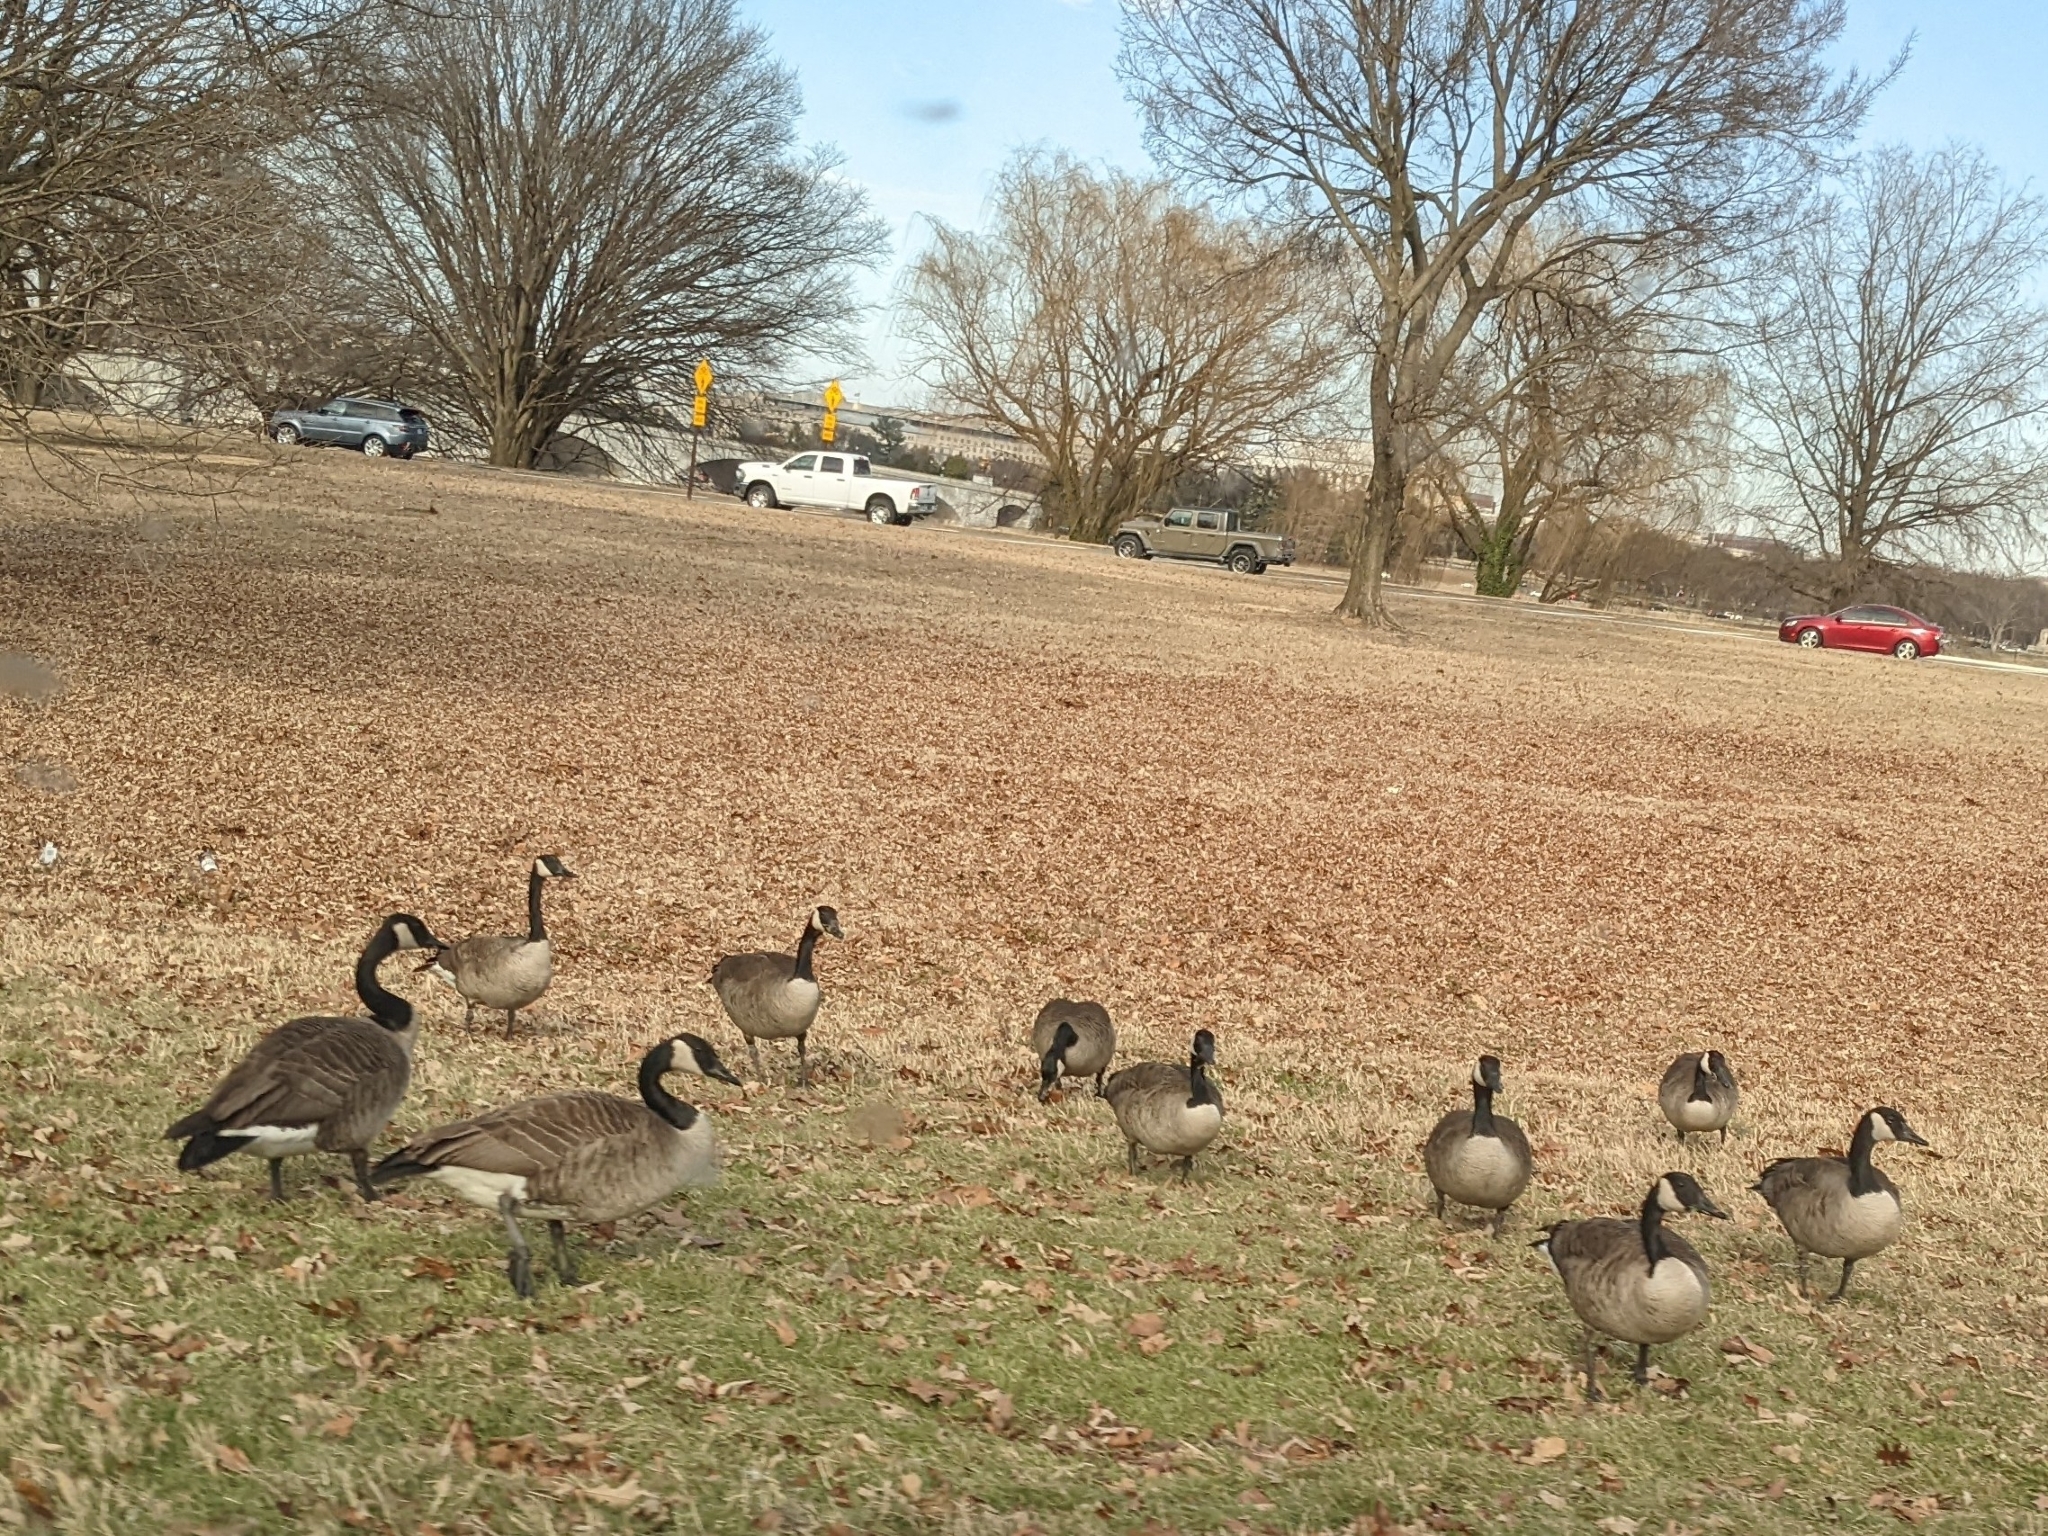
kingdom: Animalia
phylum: Chordata
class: Aves
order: Anseriformes
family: Anatidae
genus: Branta
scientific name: Branta canadensis
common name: Canada goose
